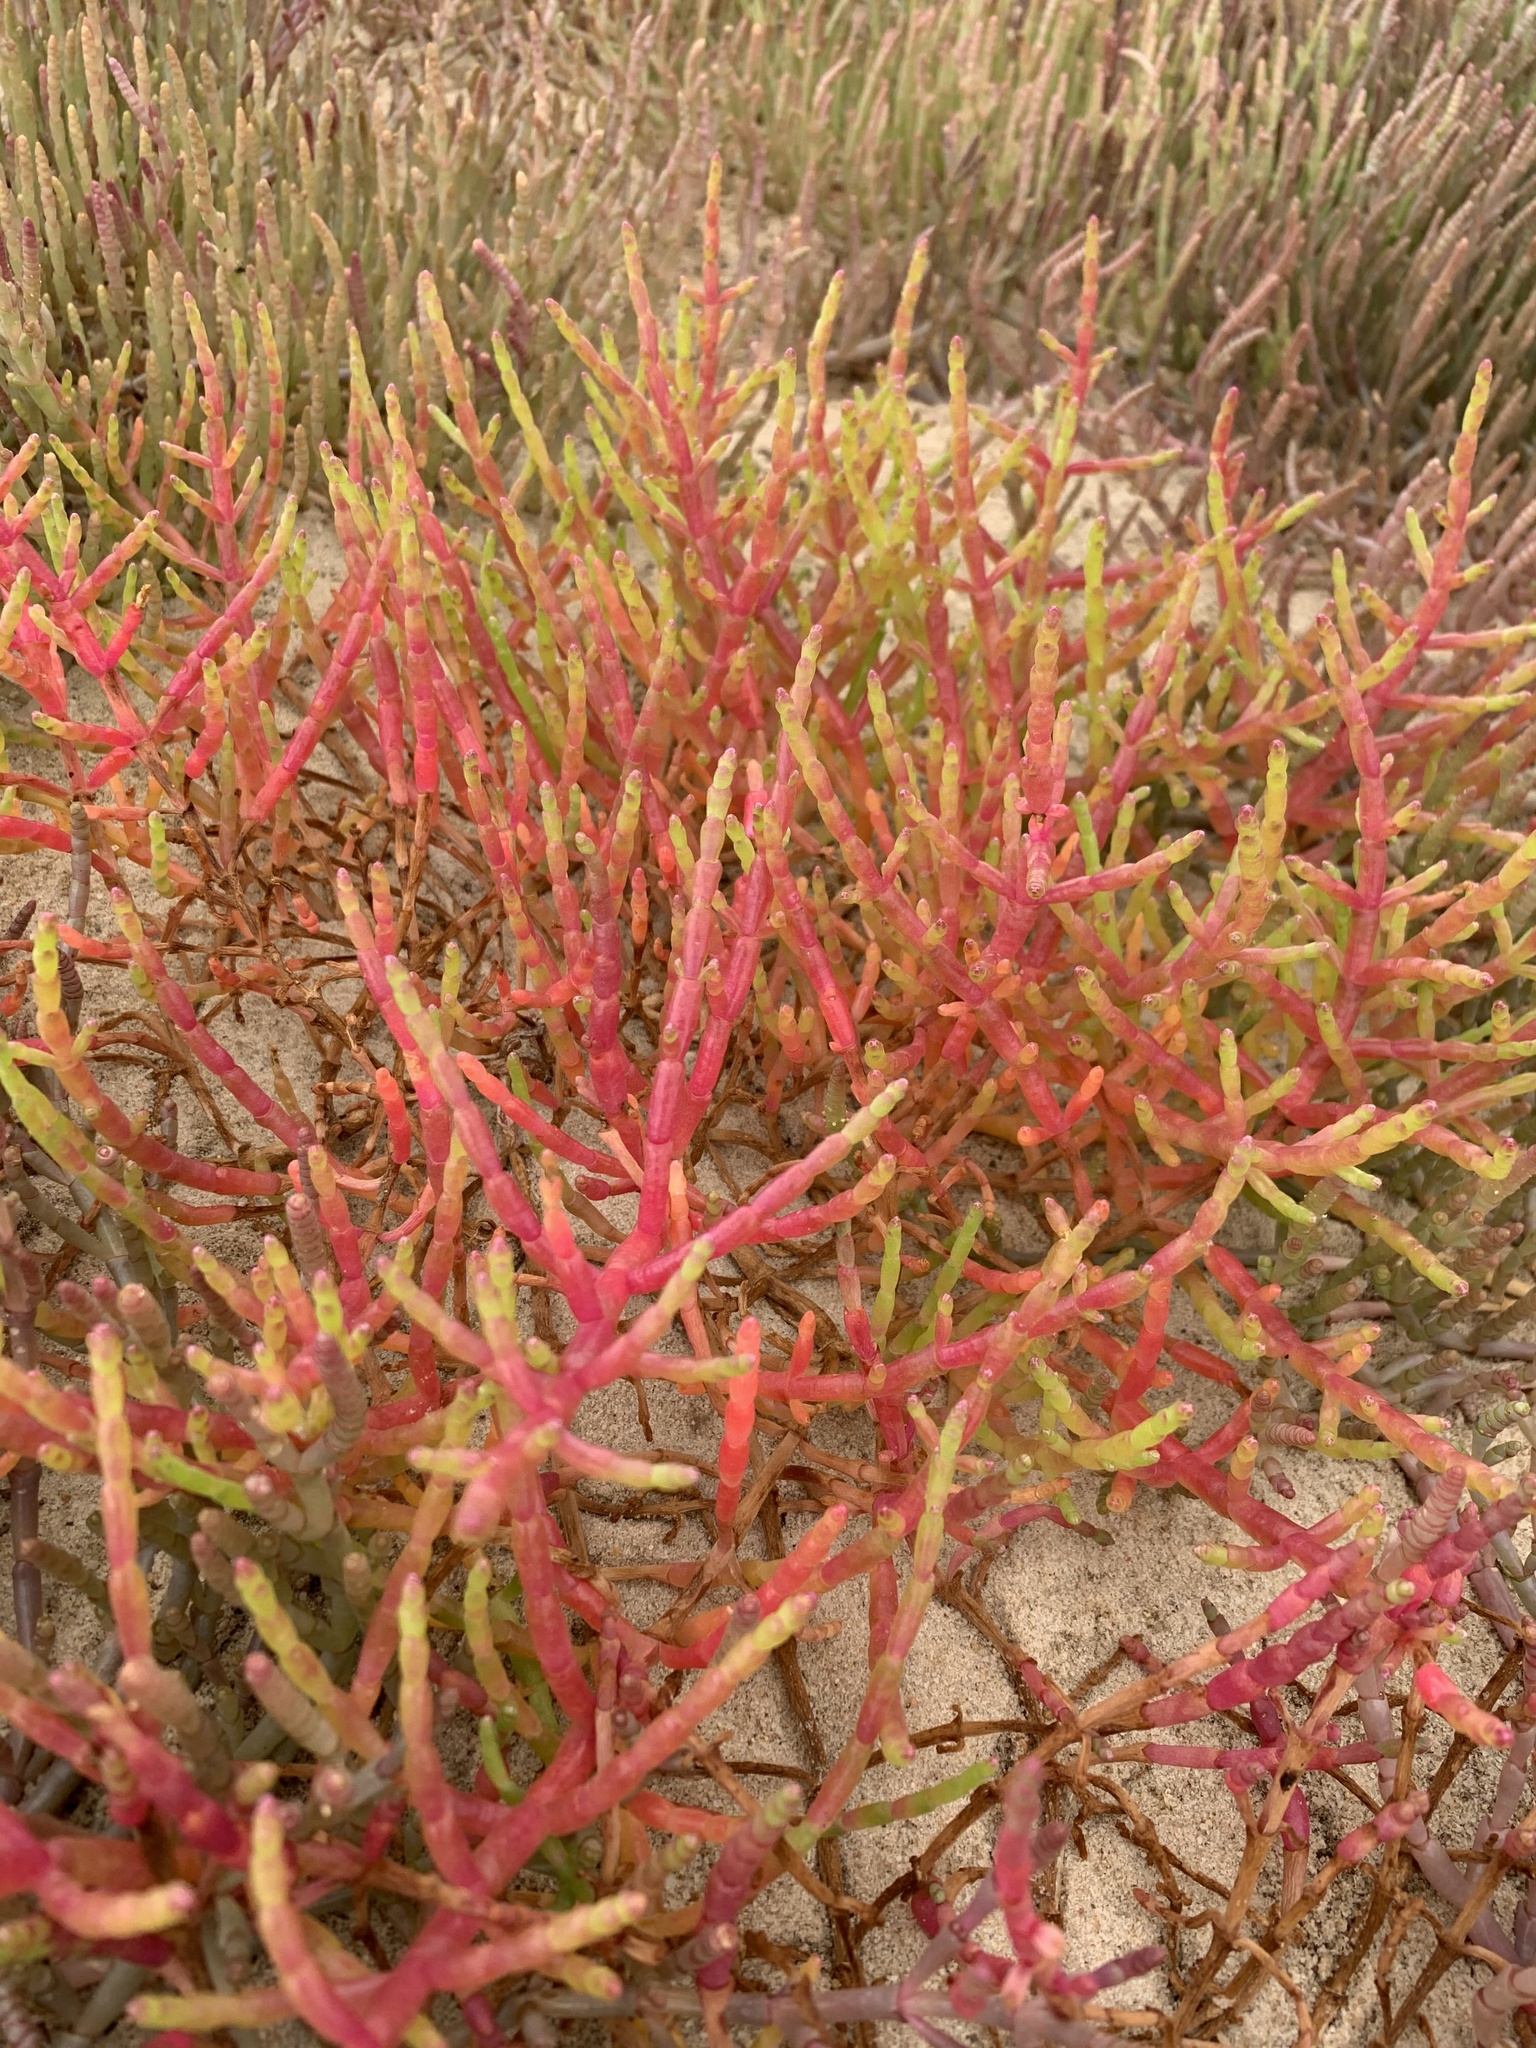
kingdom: Plantae
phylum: Tracheophyta
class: Magnoliopsida
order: Caryophyllales
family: Amaranthaceae
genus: Salicornia
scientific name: Salicornia meyeriana
